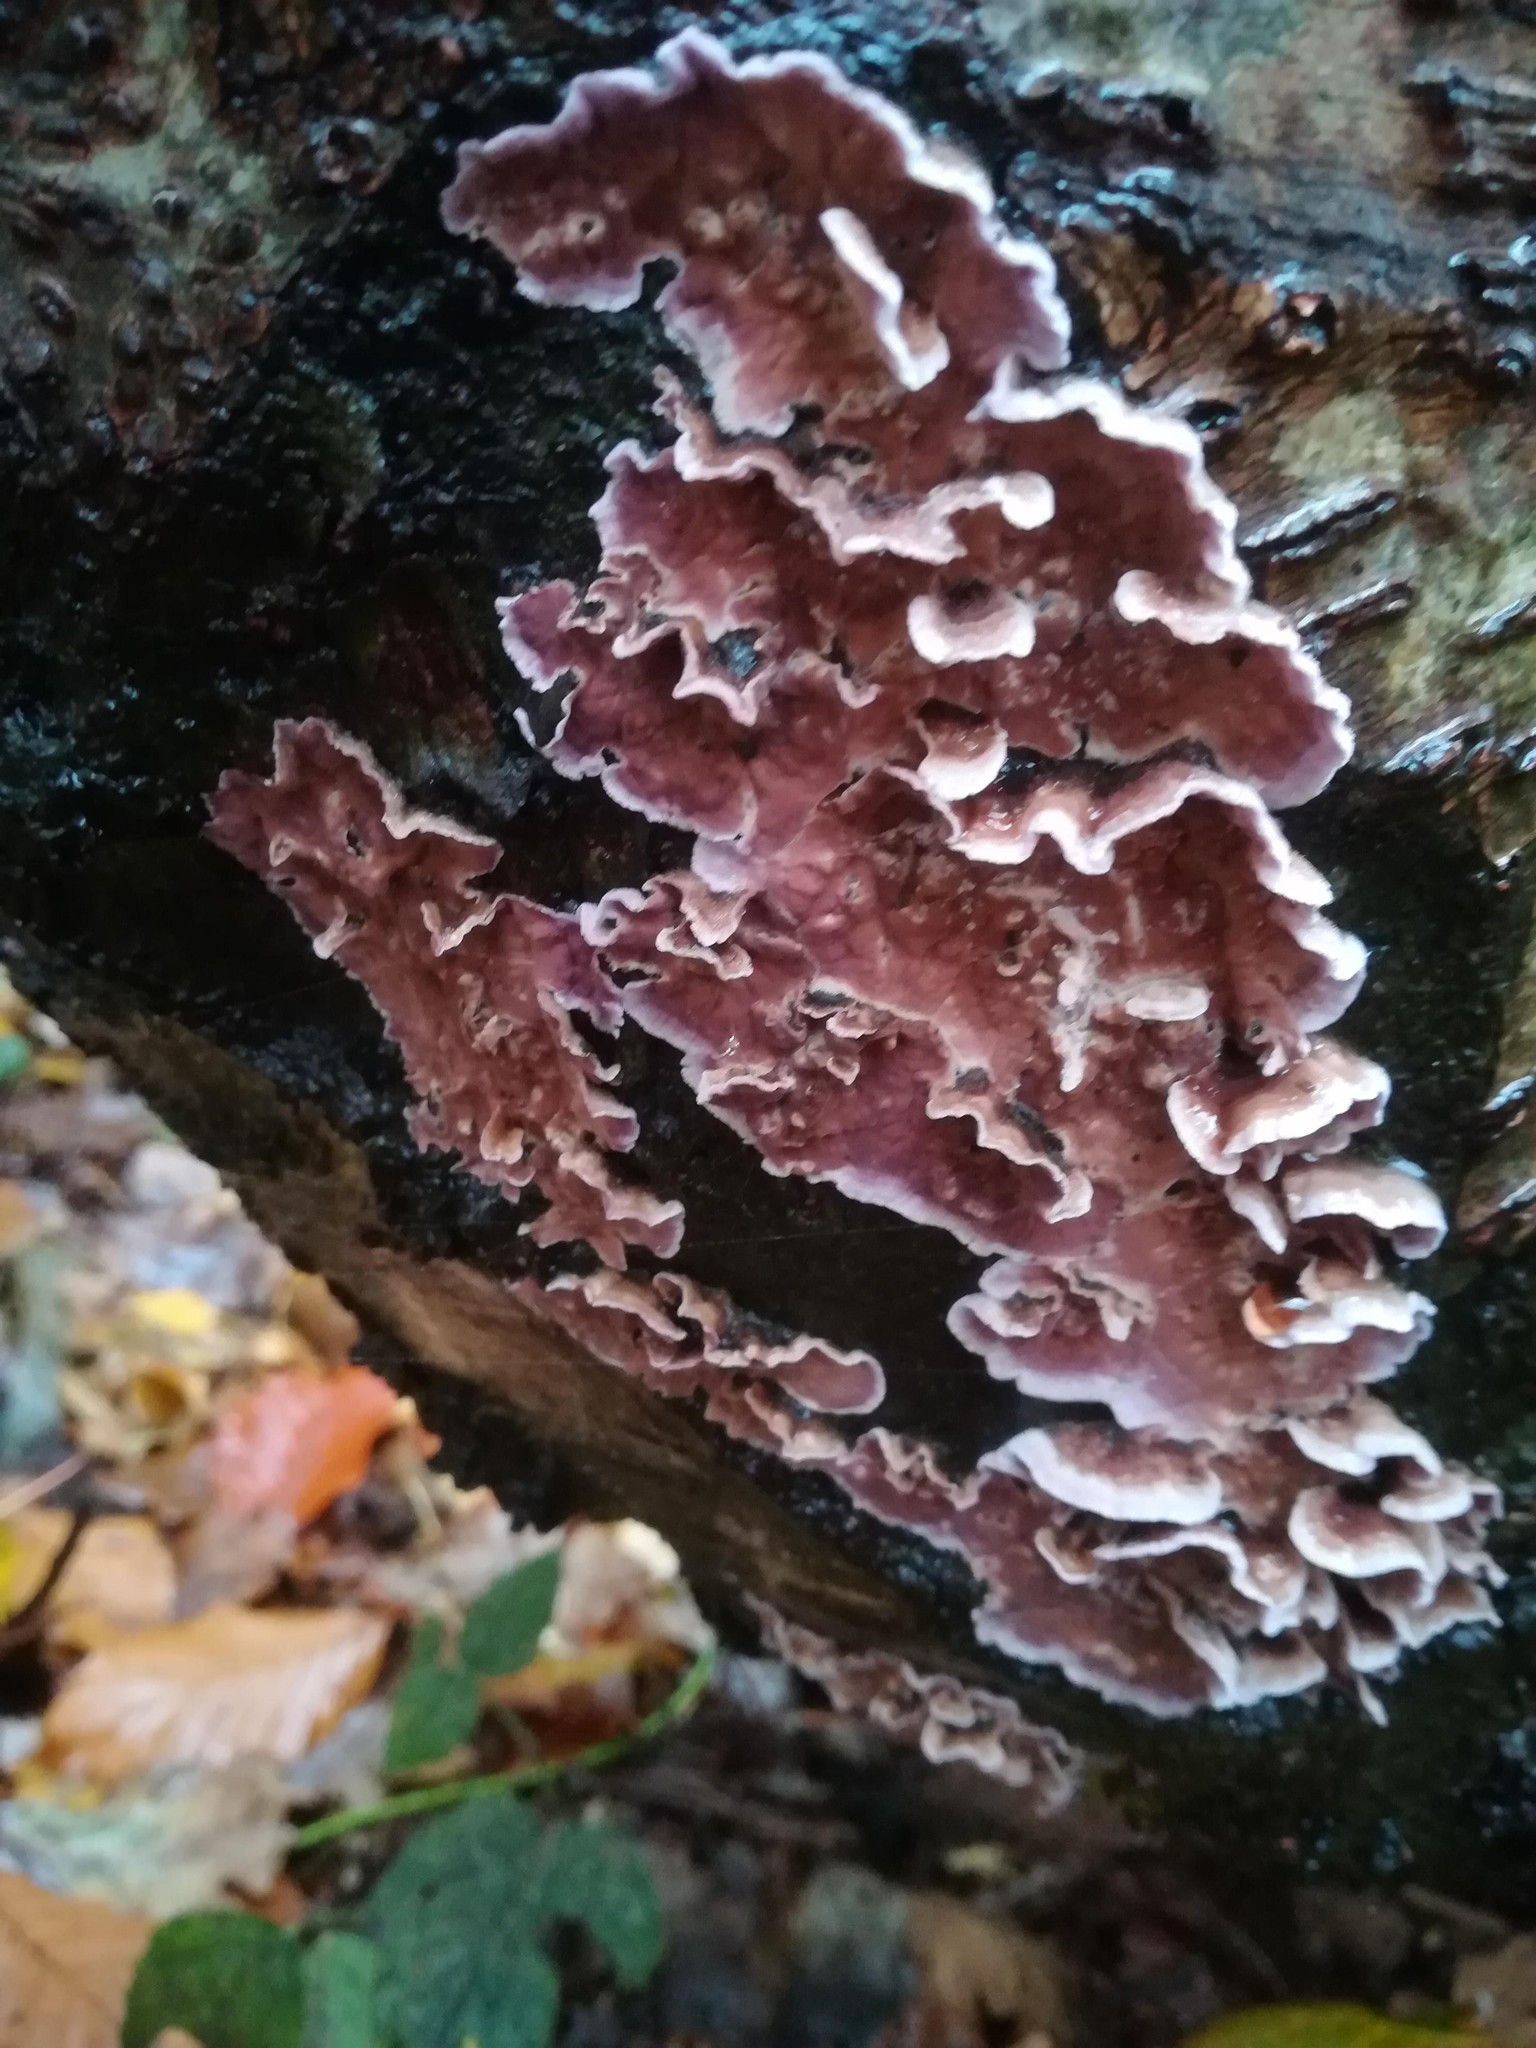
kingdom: Fungi
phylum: Basidiomycota
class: Agaricomycetes
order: Agaricales
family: Cyphellaceae
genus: Chondrostereum
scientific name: Chondrostereum purpureum
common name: Silver leaf disease
